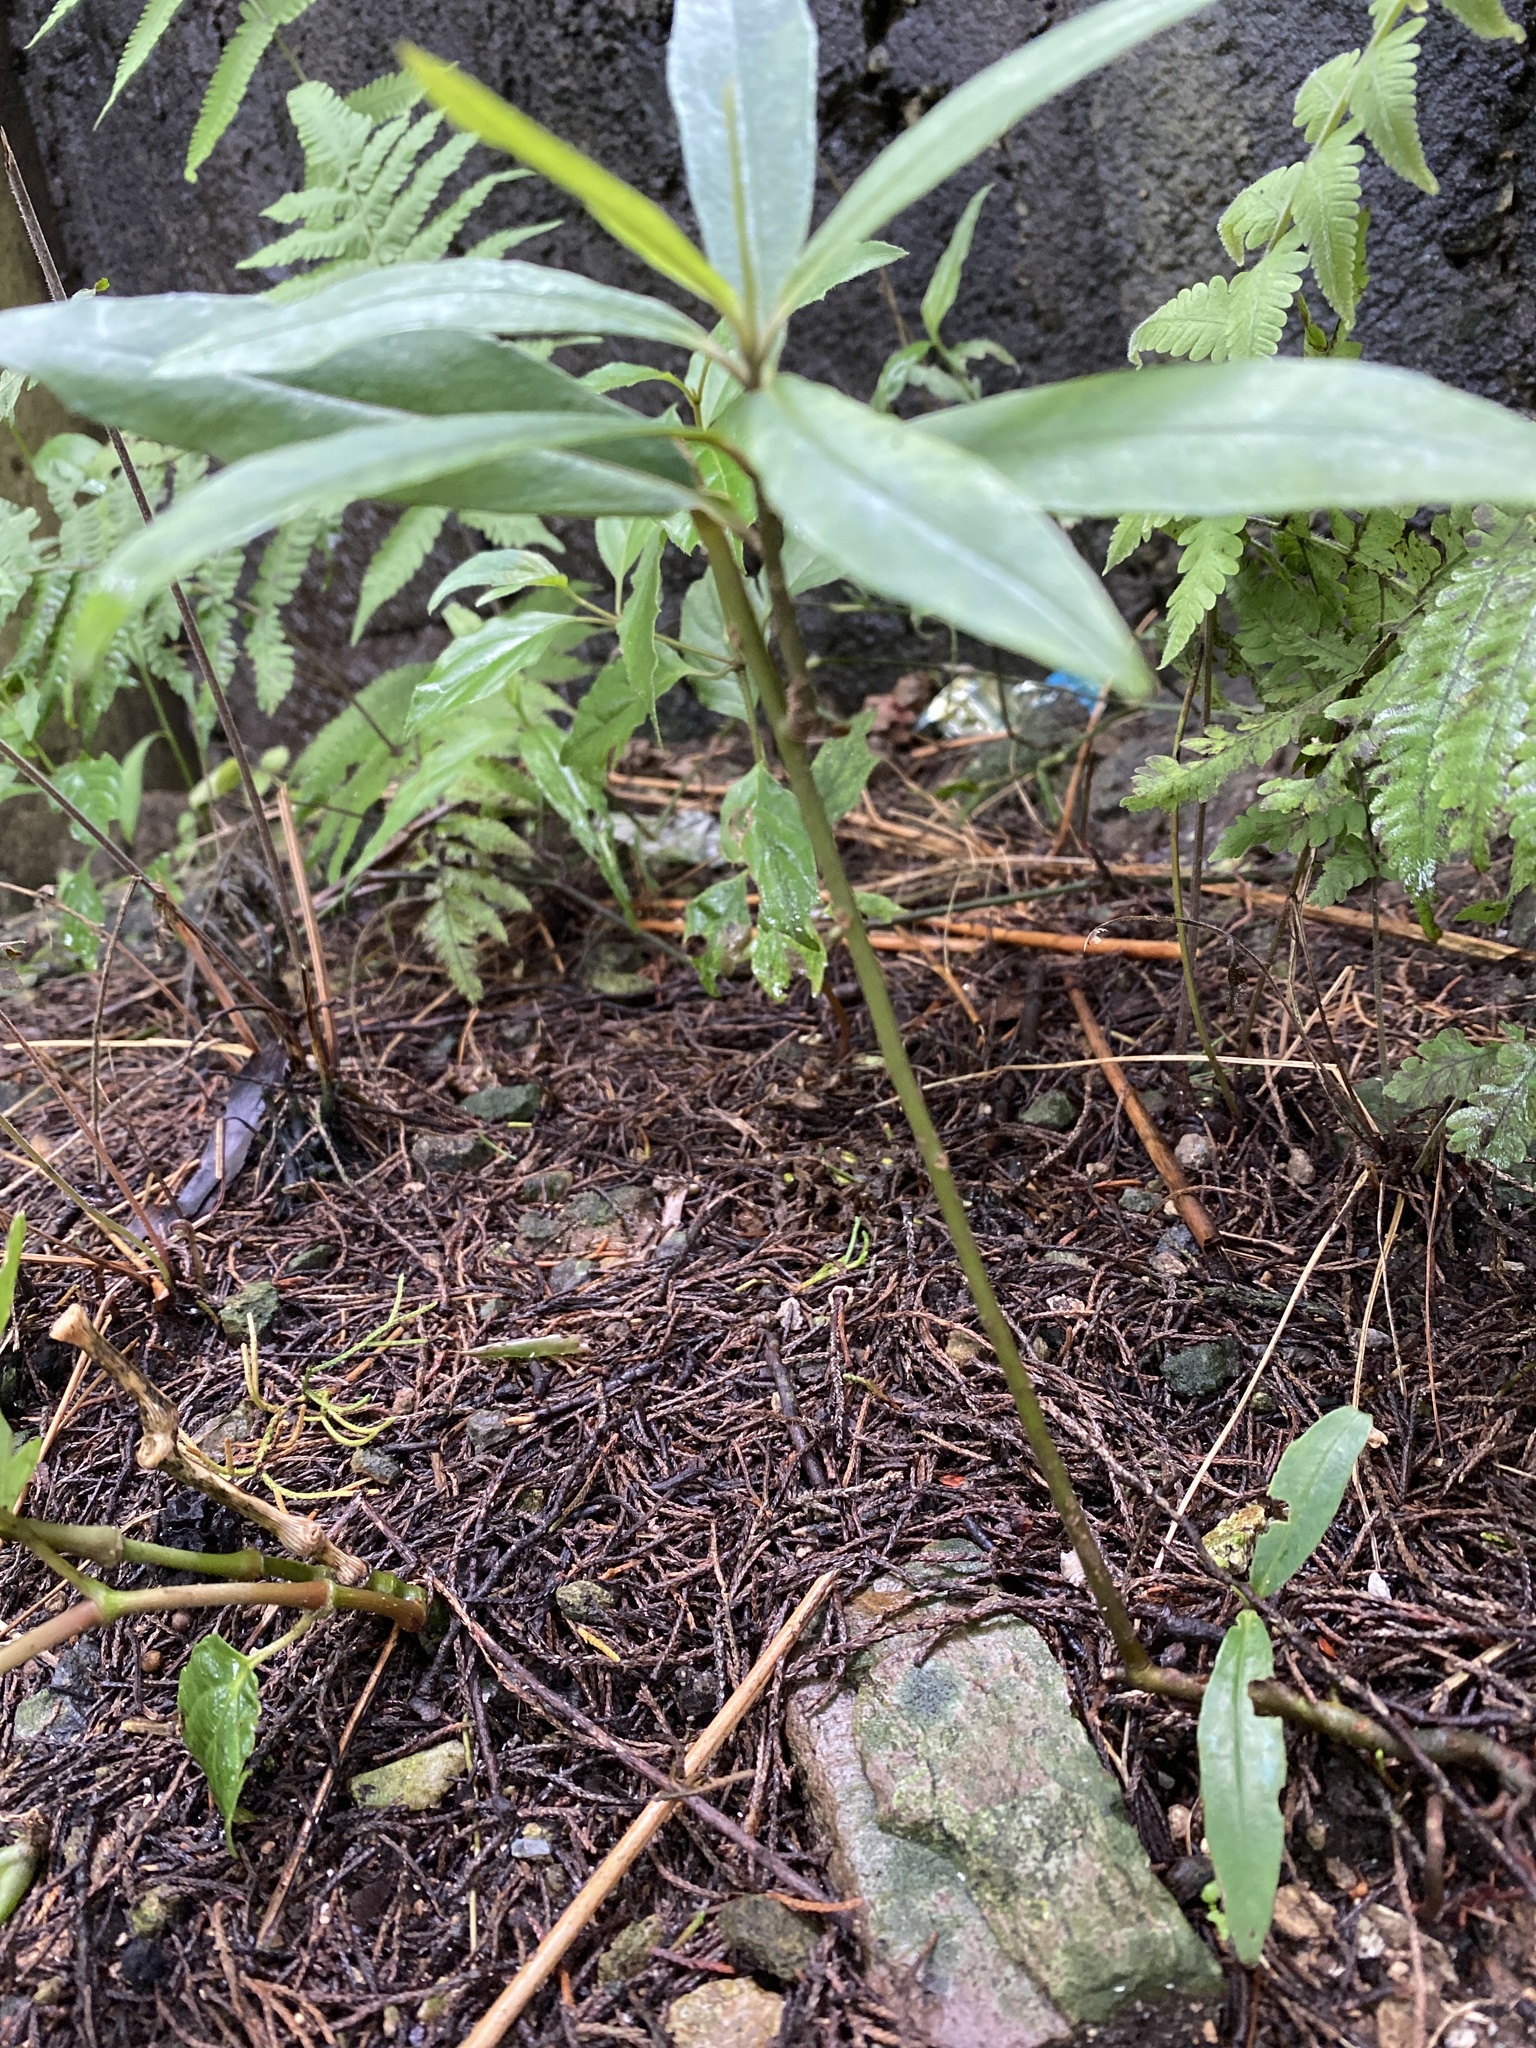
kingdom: Plantae
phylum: Tracheophyta
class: Magnoliopsida
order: Gentianales
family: Apocynaceae
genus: Asclepias
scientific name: Asclepias curassavica
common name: Bloodflower
